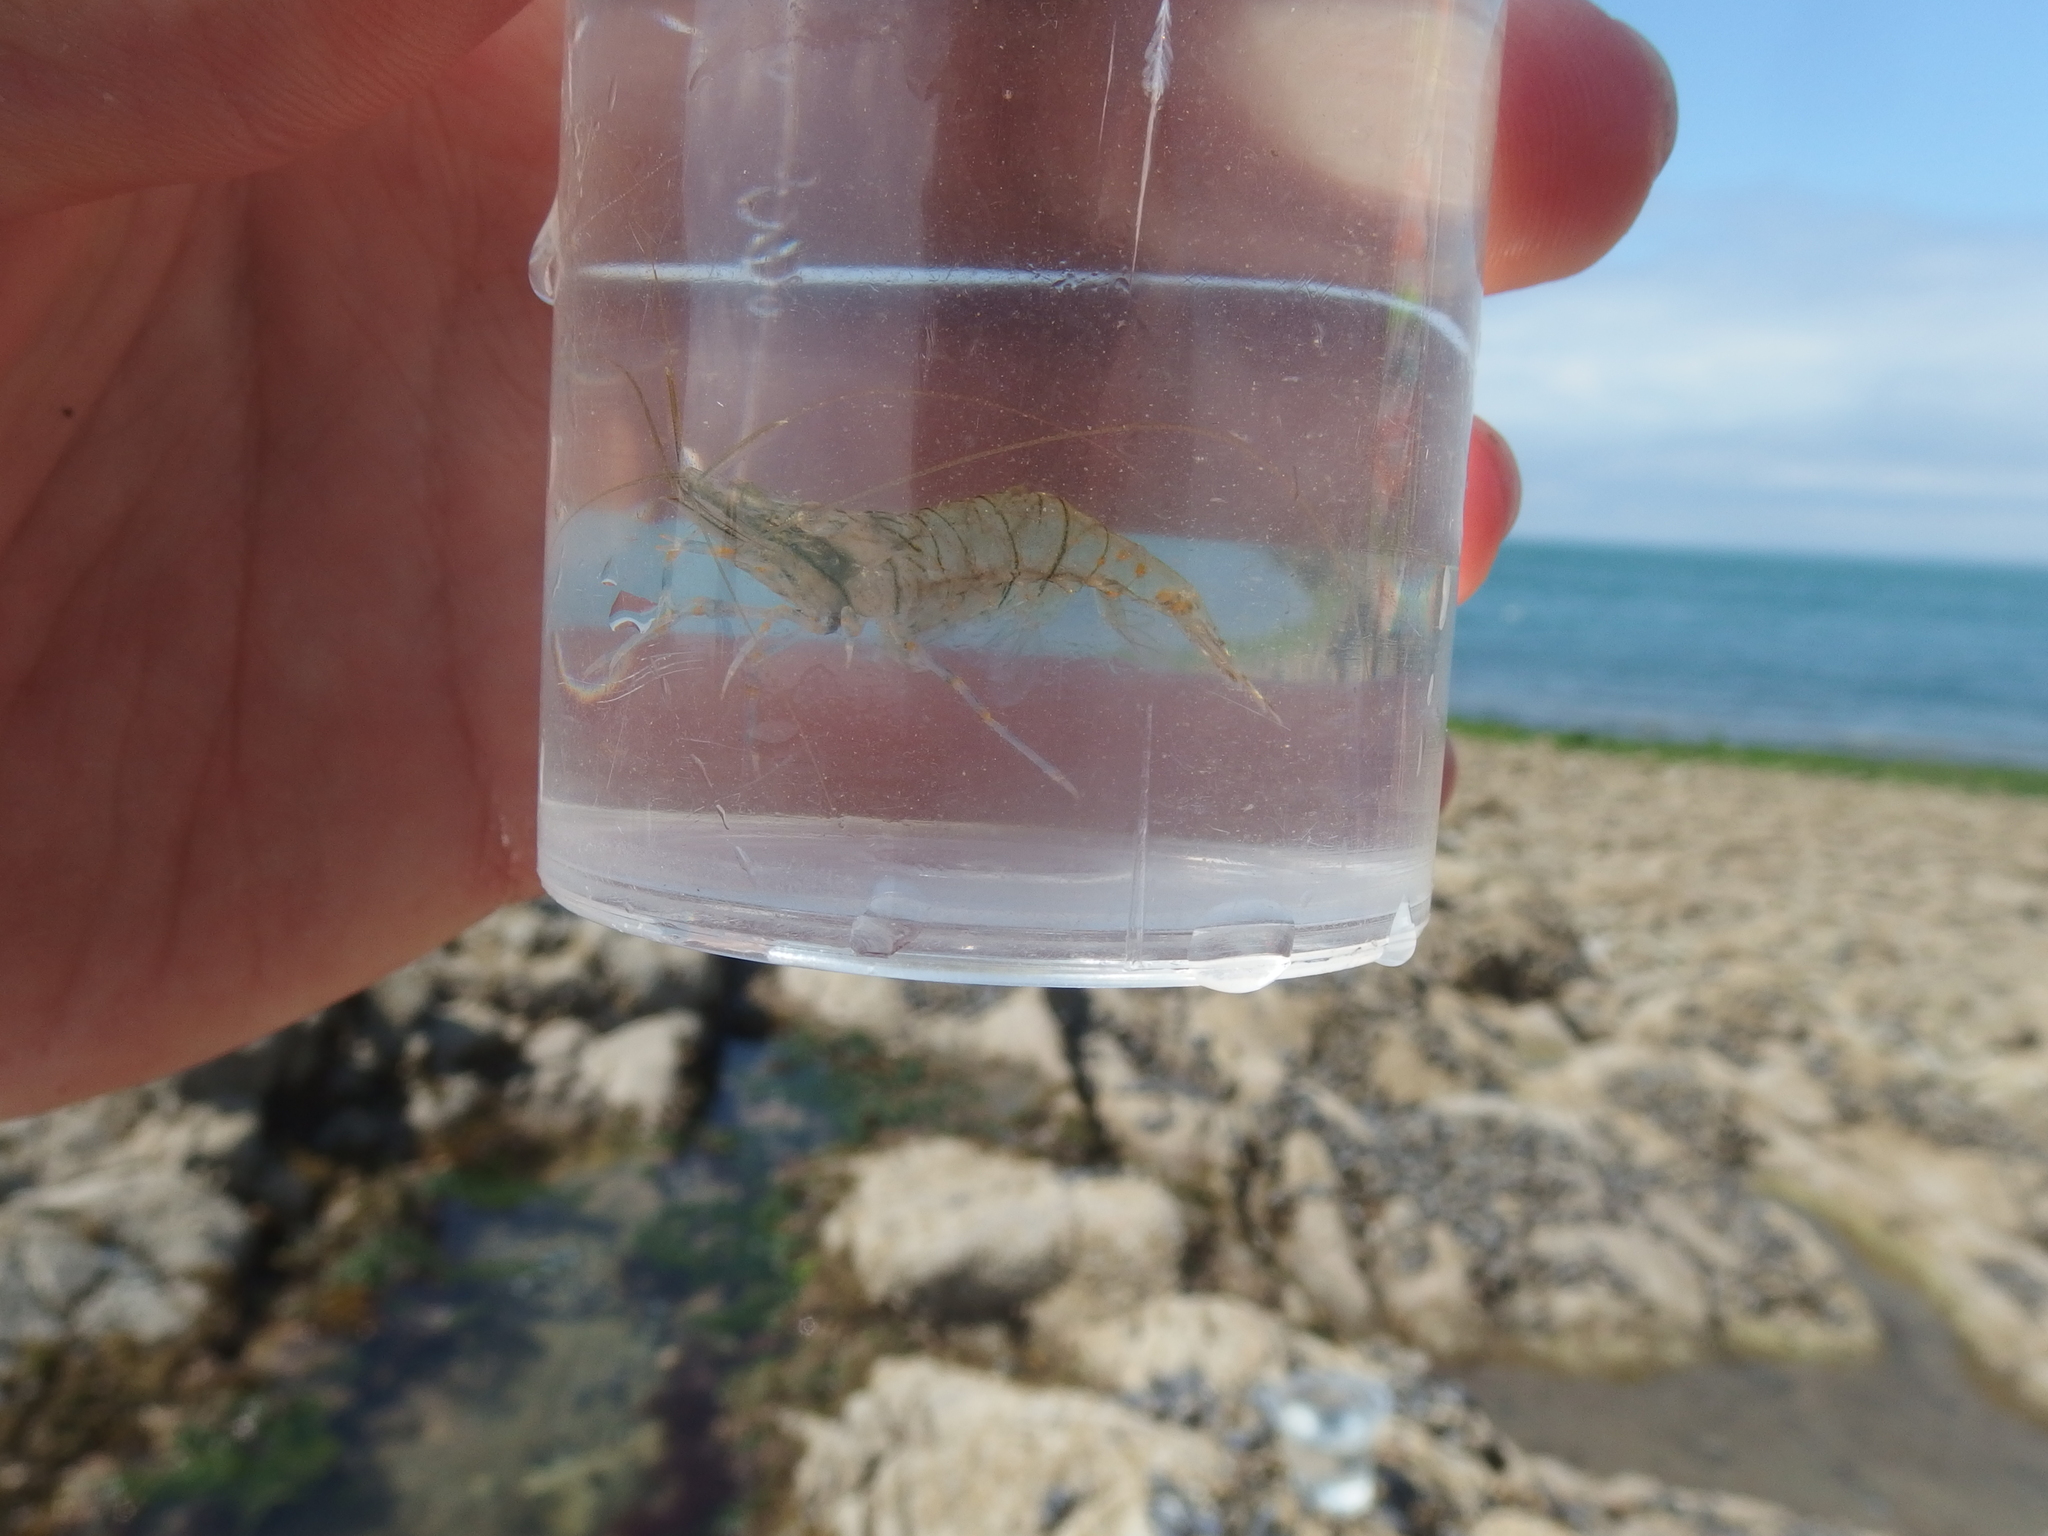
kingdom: Animalia
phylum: Arthropoda
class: Malacostraca
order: Decapoda
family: Palaemonidae
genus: Palaemon
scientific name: Palaemon elegans
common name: Grass prawm
